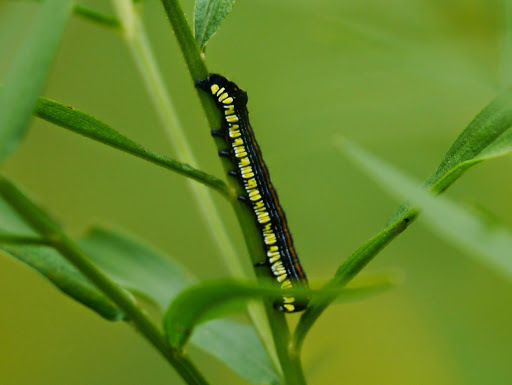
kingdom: Animalia
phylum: Arthropoda
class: Insecta
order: Lepidoptera
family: Noctuidae
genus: Cucullia
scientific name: Cucullia convexipennis
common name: Brown-hooded owlet
